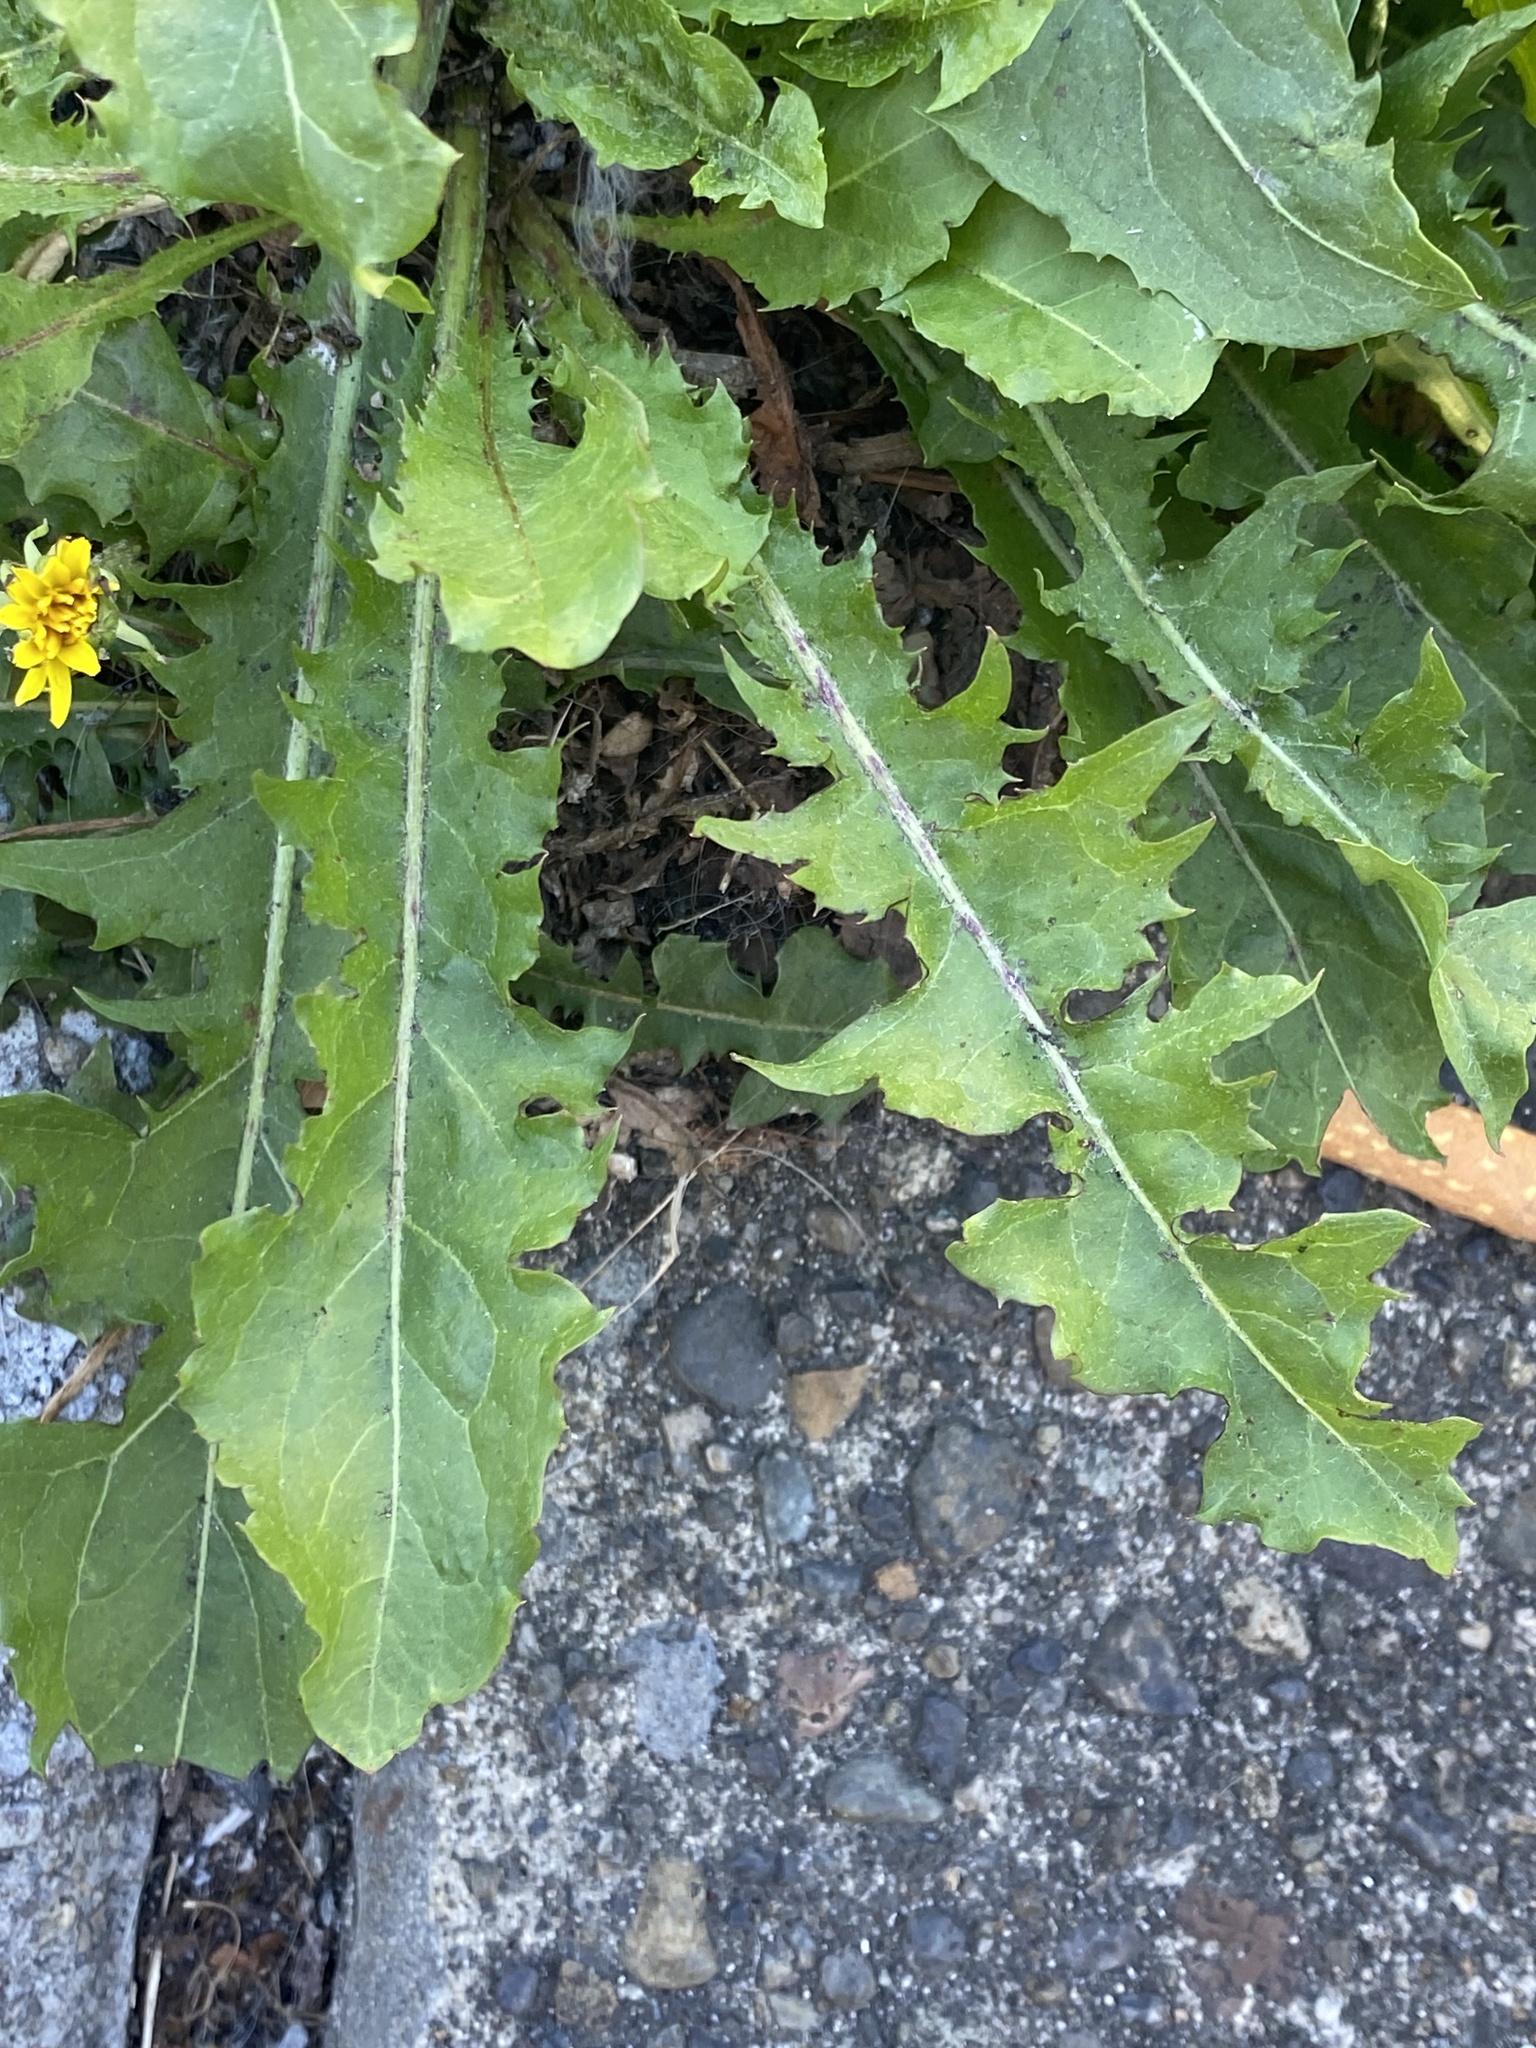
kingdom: Plantae
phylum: Tracheophyta
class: Magnoliopsida
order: Asterales
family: Asteraceae
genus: Taraxacum
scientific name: Taraxacum officinale
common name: Common dandelion
